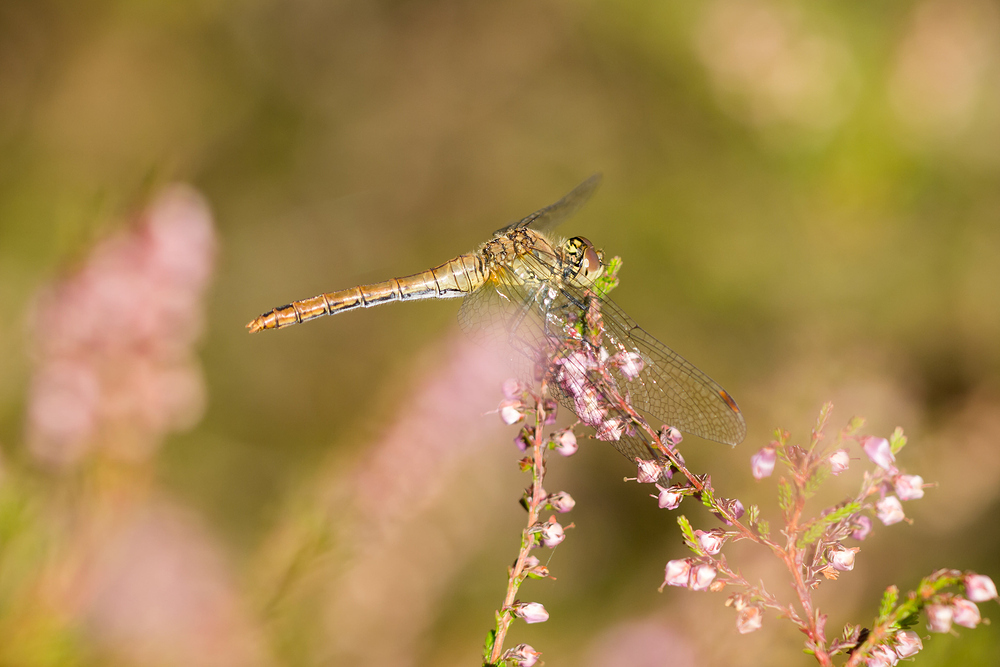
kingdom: Animalia
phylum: Arthropoda
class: Insecta
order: Odonata
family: Libellulidae
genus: Sympetrum
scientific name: Sympetrum sanguineum
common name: Ruddy darter
